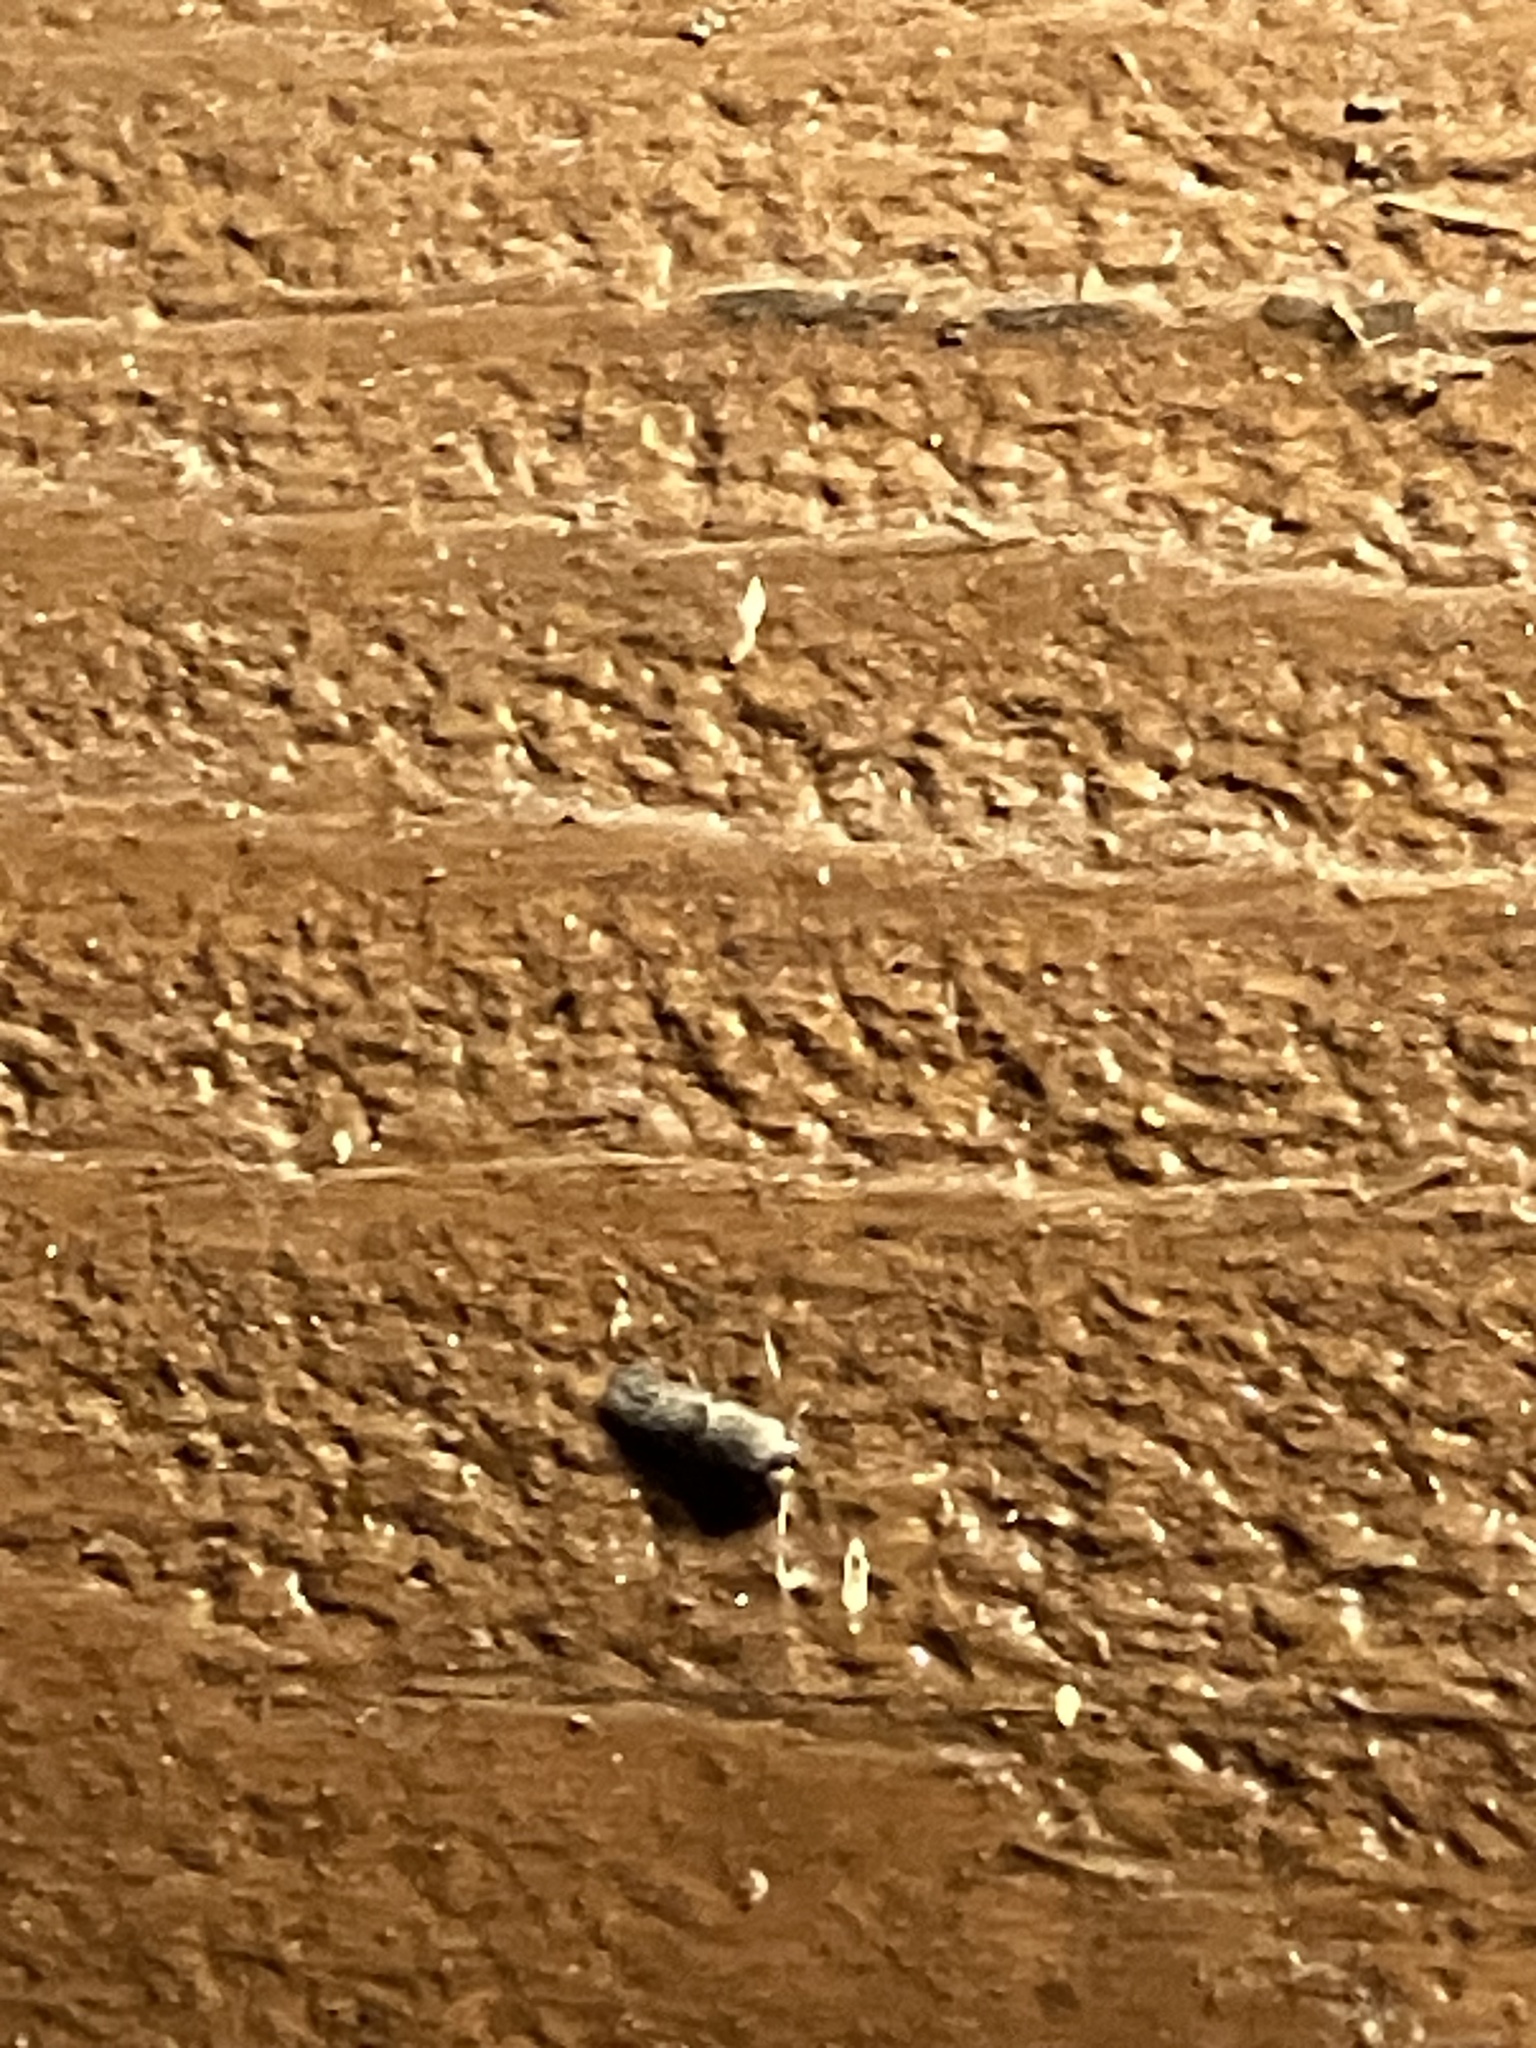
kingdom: Animalia
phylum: Arthropoda
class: Insecta
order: Lepidoptera
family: Blastobasidae
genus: Blastobasis
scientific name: Blastobasis glandulella
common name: Acorn moth
